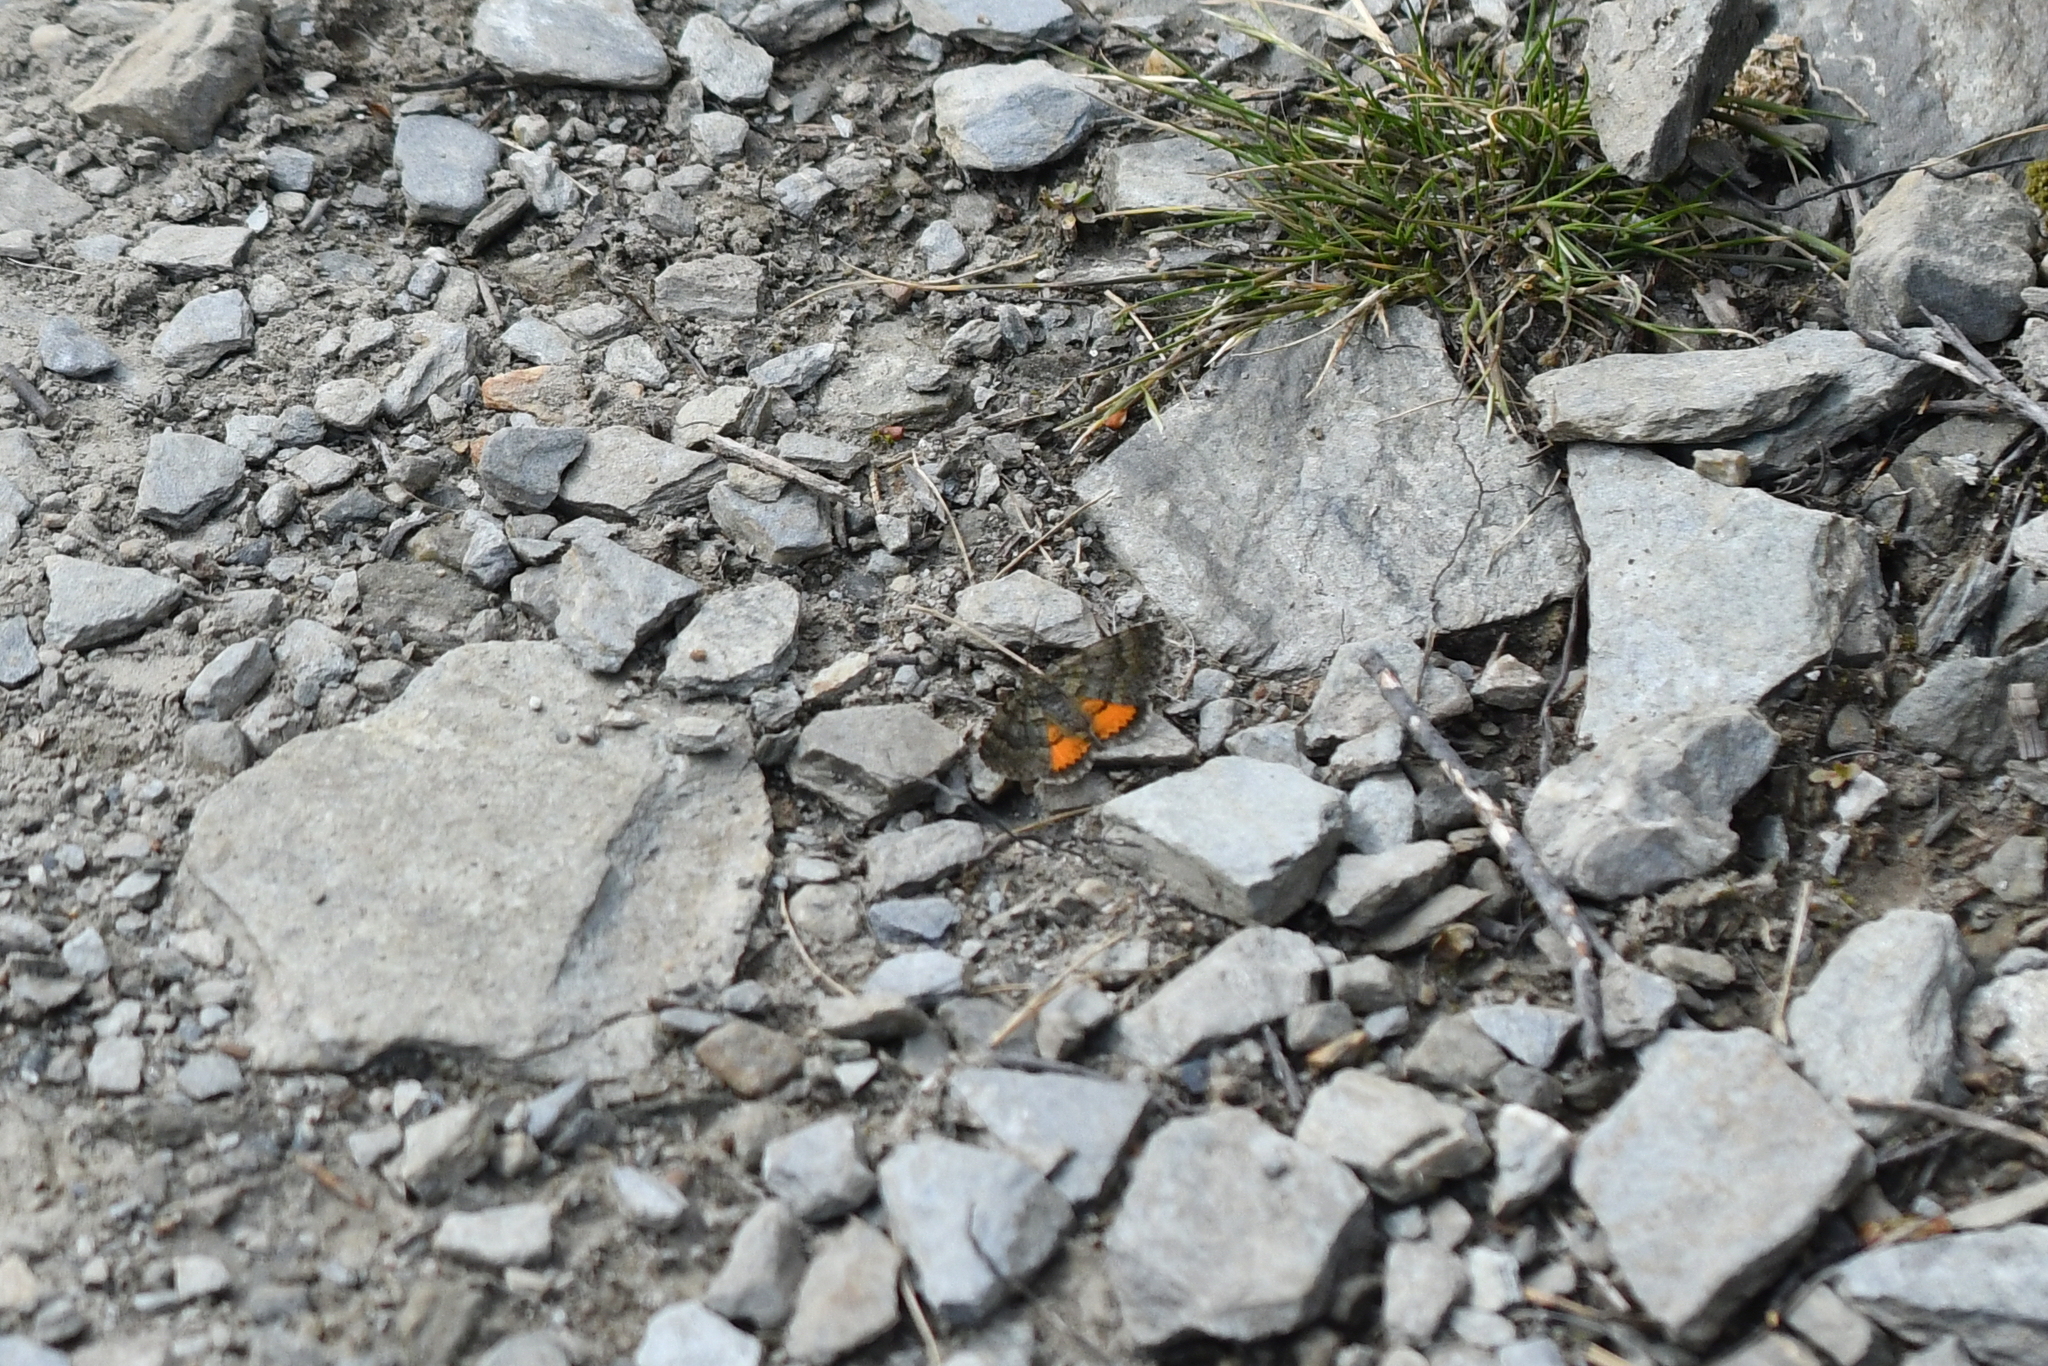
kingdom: Animalia
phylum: Arthropoda
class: Insecta
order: Lepidoptera
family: Geometridae
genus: Paranotoreas
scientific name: Paranotoreas brephosata
